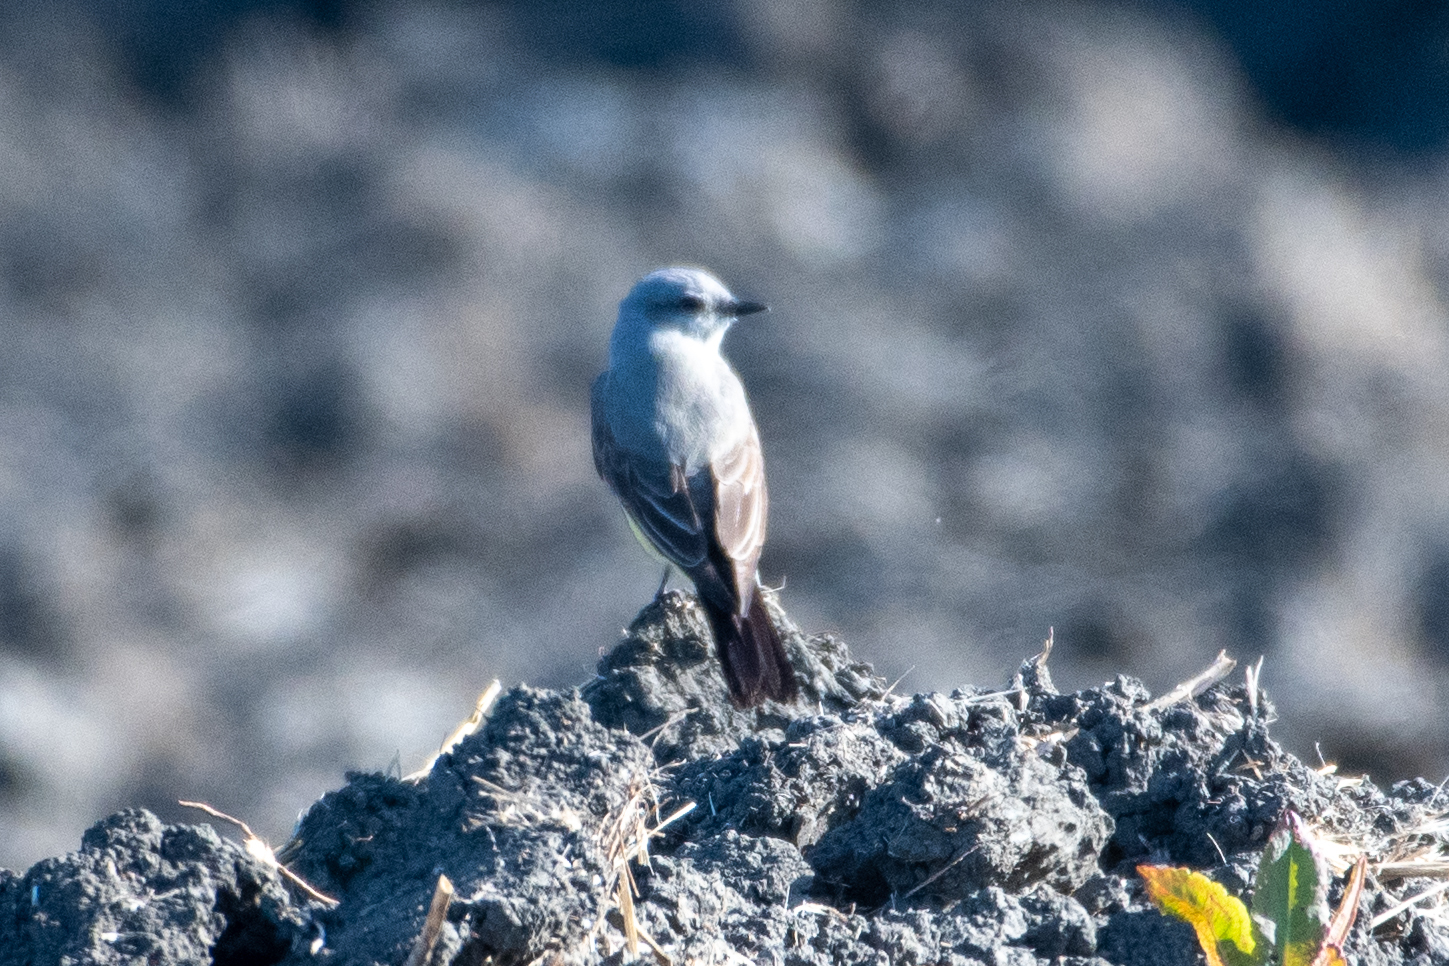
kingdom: Animalia
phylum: Chordata
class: Aves
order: Passeriformes
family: Tyrannidae
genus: Tyrannus
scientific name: Tyrannus verticalis
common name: Western kingbird
